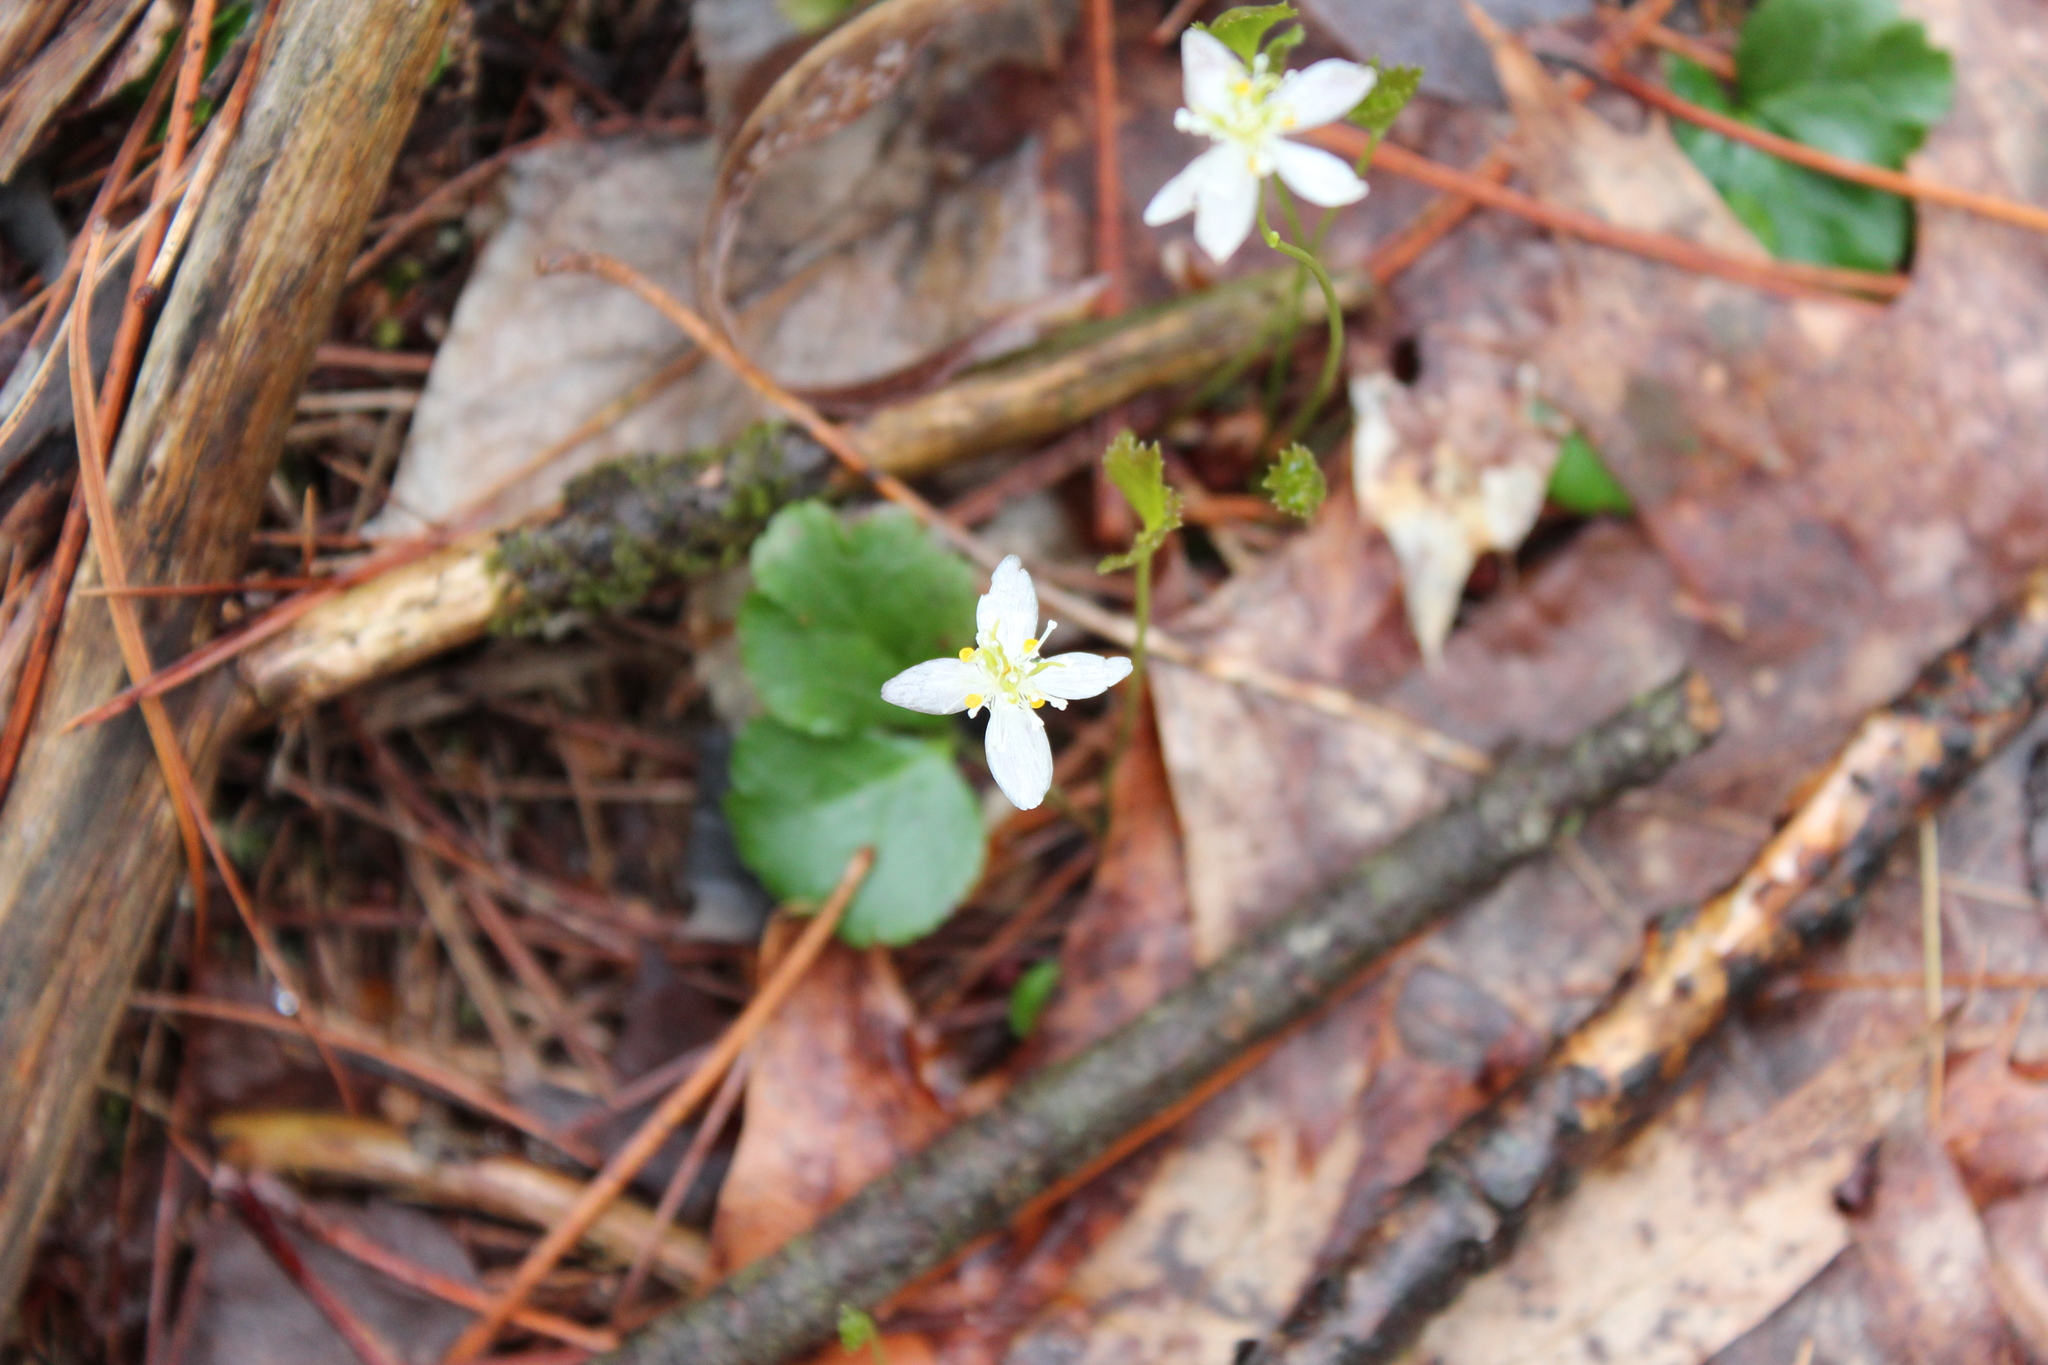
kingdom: Plantae
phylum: Tracheophyta
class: Magnoliopsida
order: Ranunculales
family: Ranunculaceae
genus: Coptis
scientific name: Coptis trifolia
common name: Canker-root
